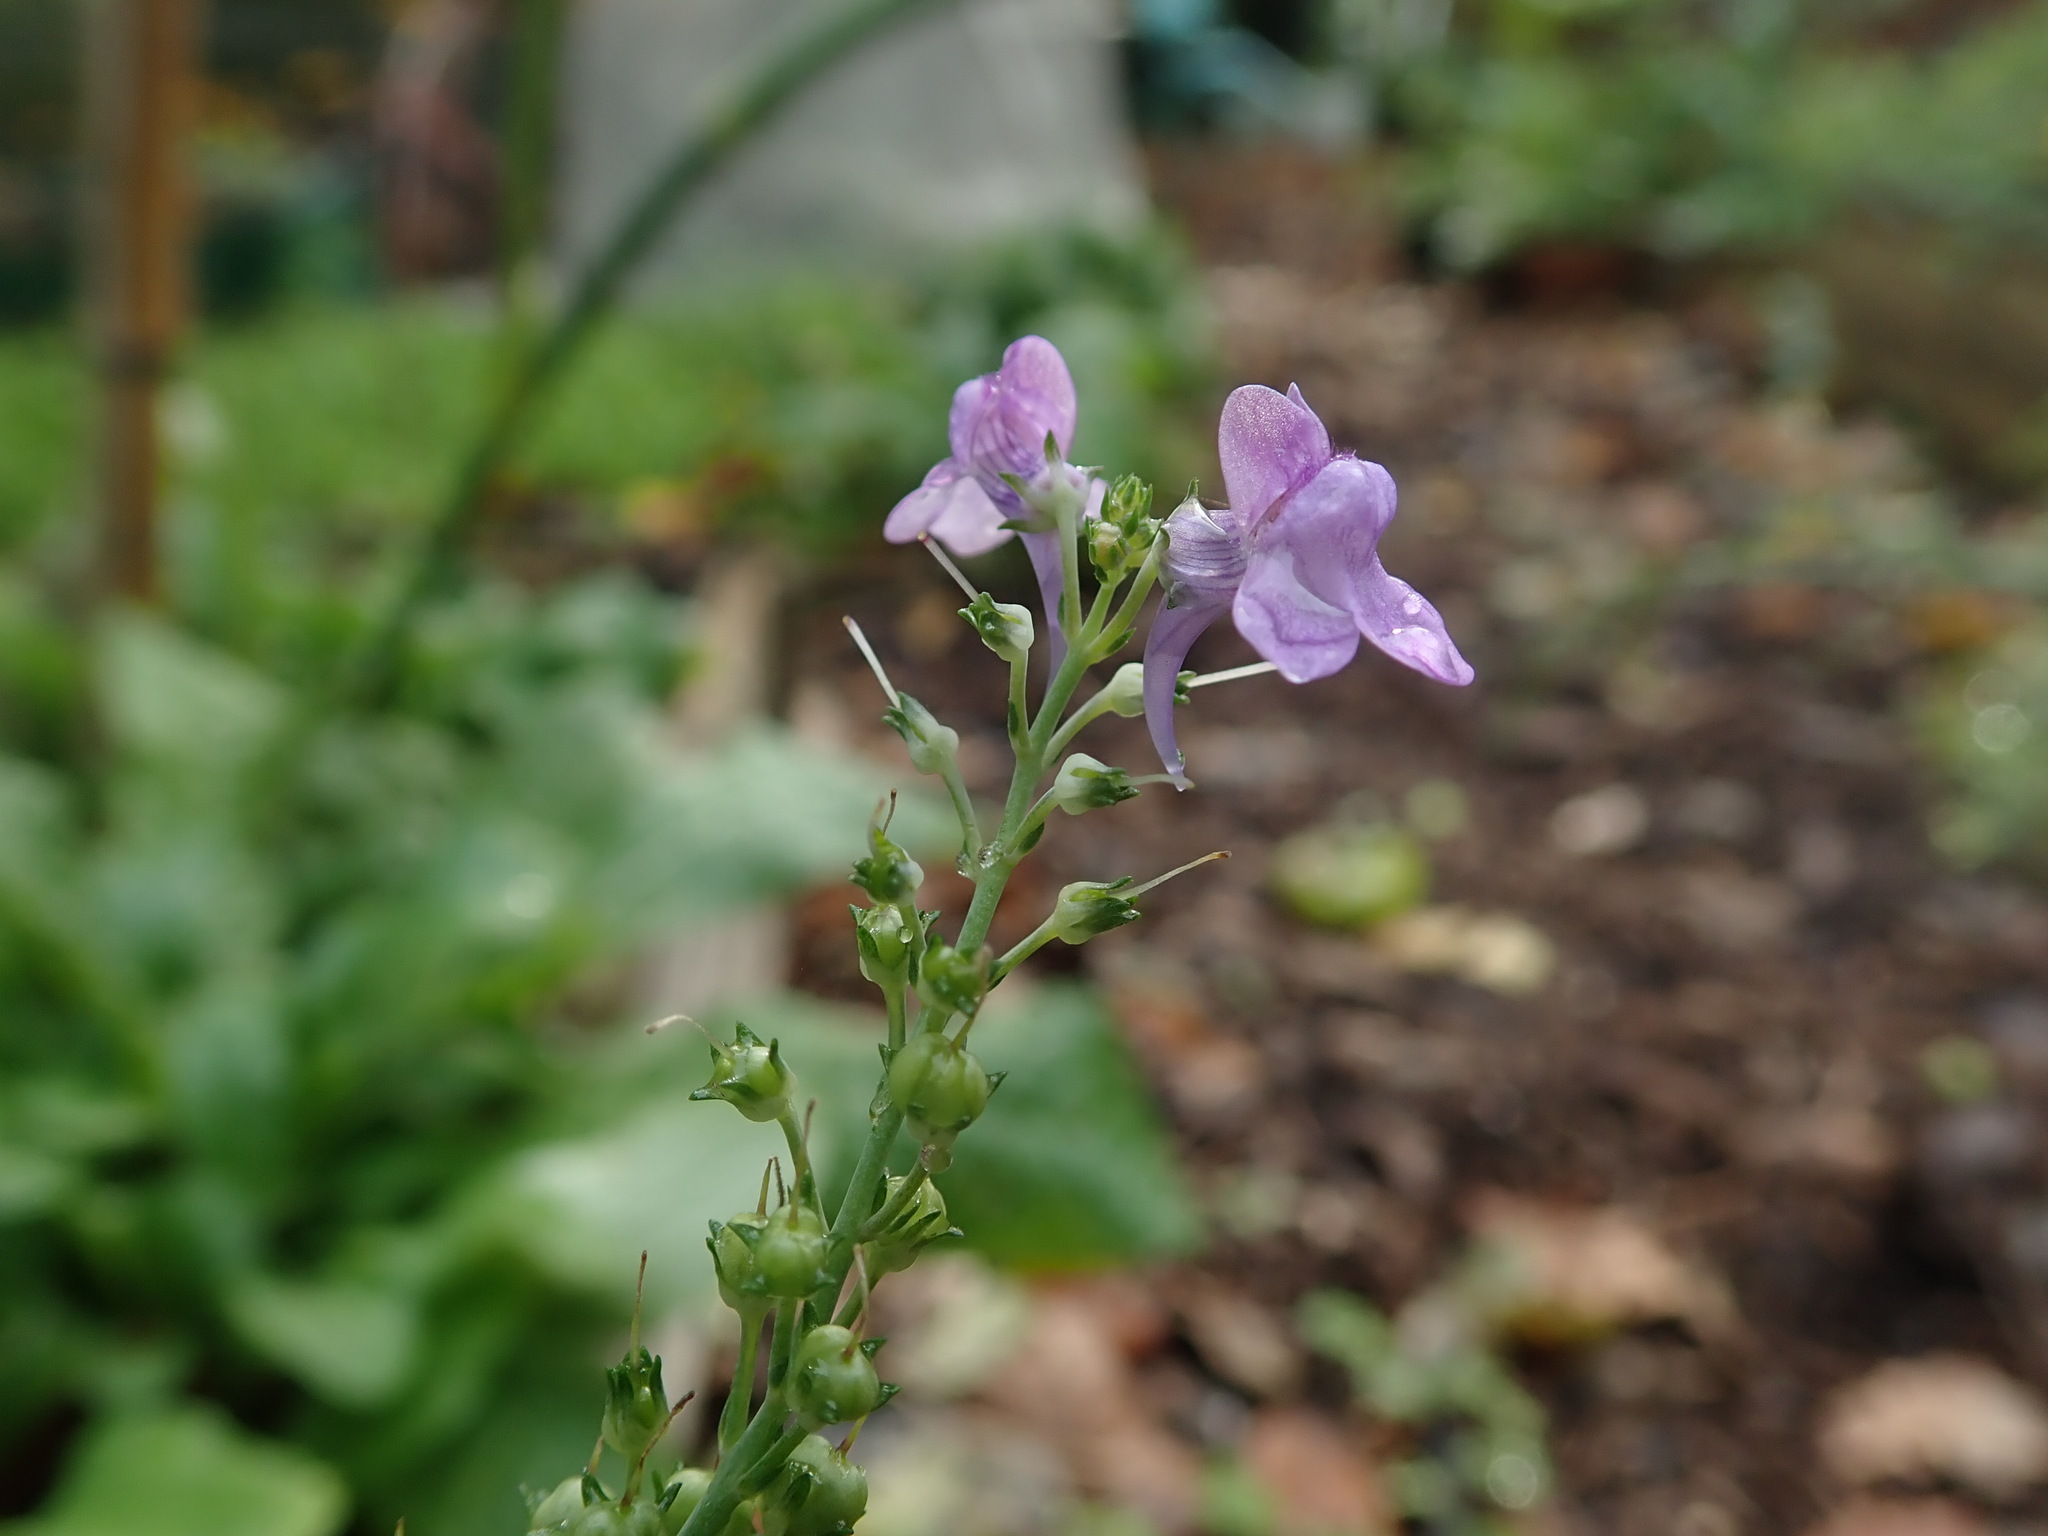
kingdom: Plantae
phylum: Tracheophyta
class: Magnoliopsida
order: Lamiales
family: Plantaginaceae
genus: Linaria
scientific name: Linaria purpurea
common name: Purple toadflax
